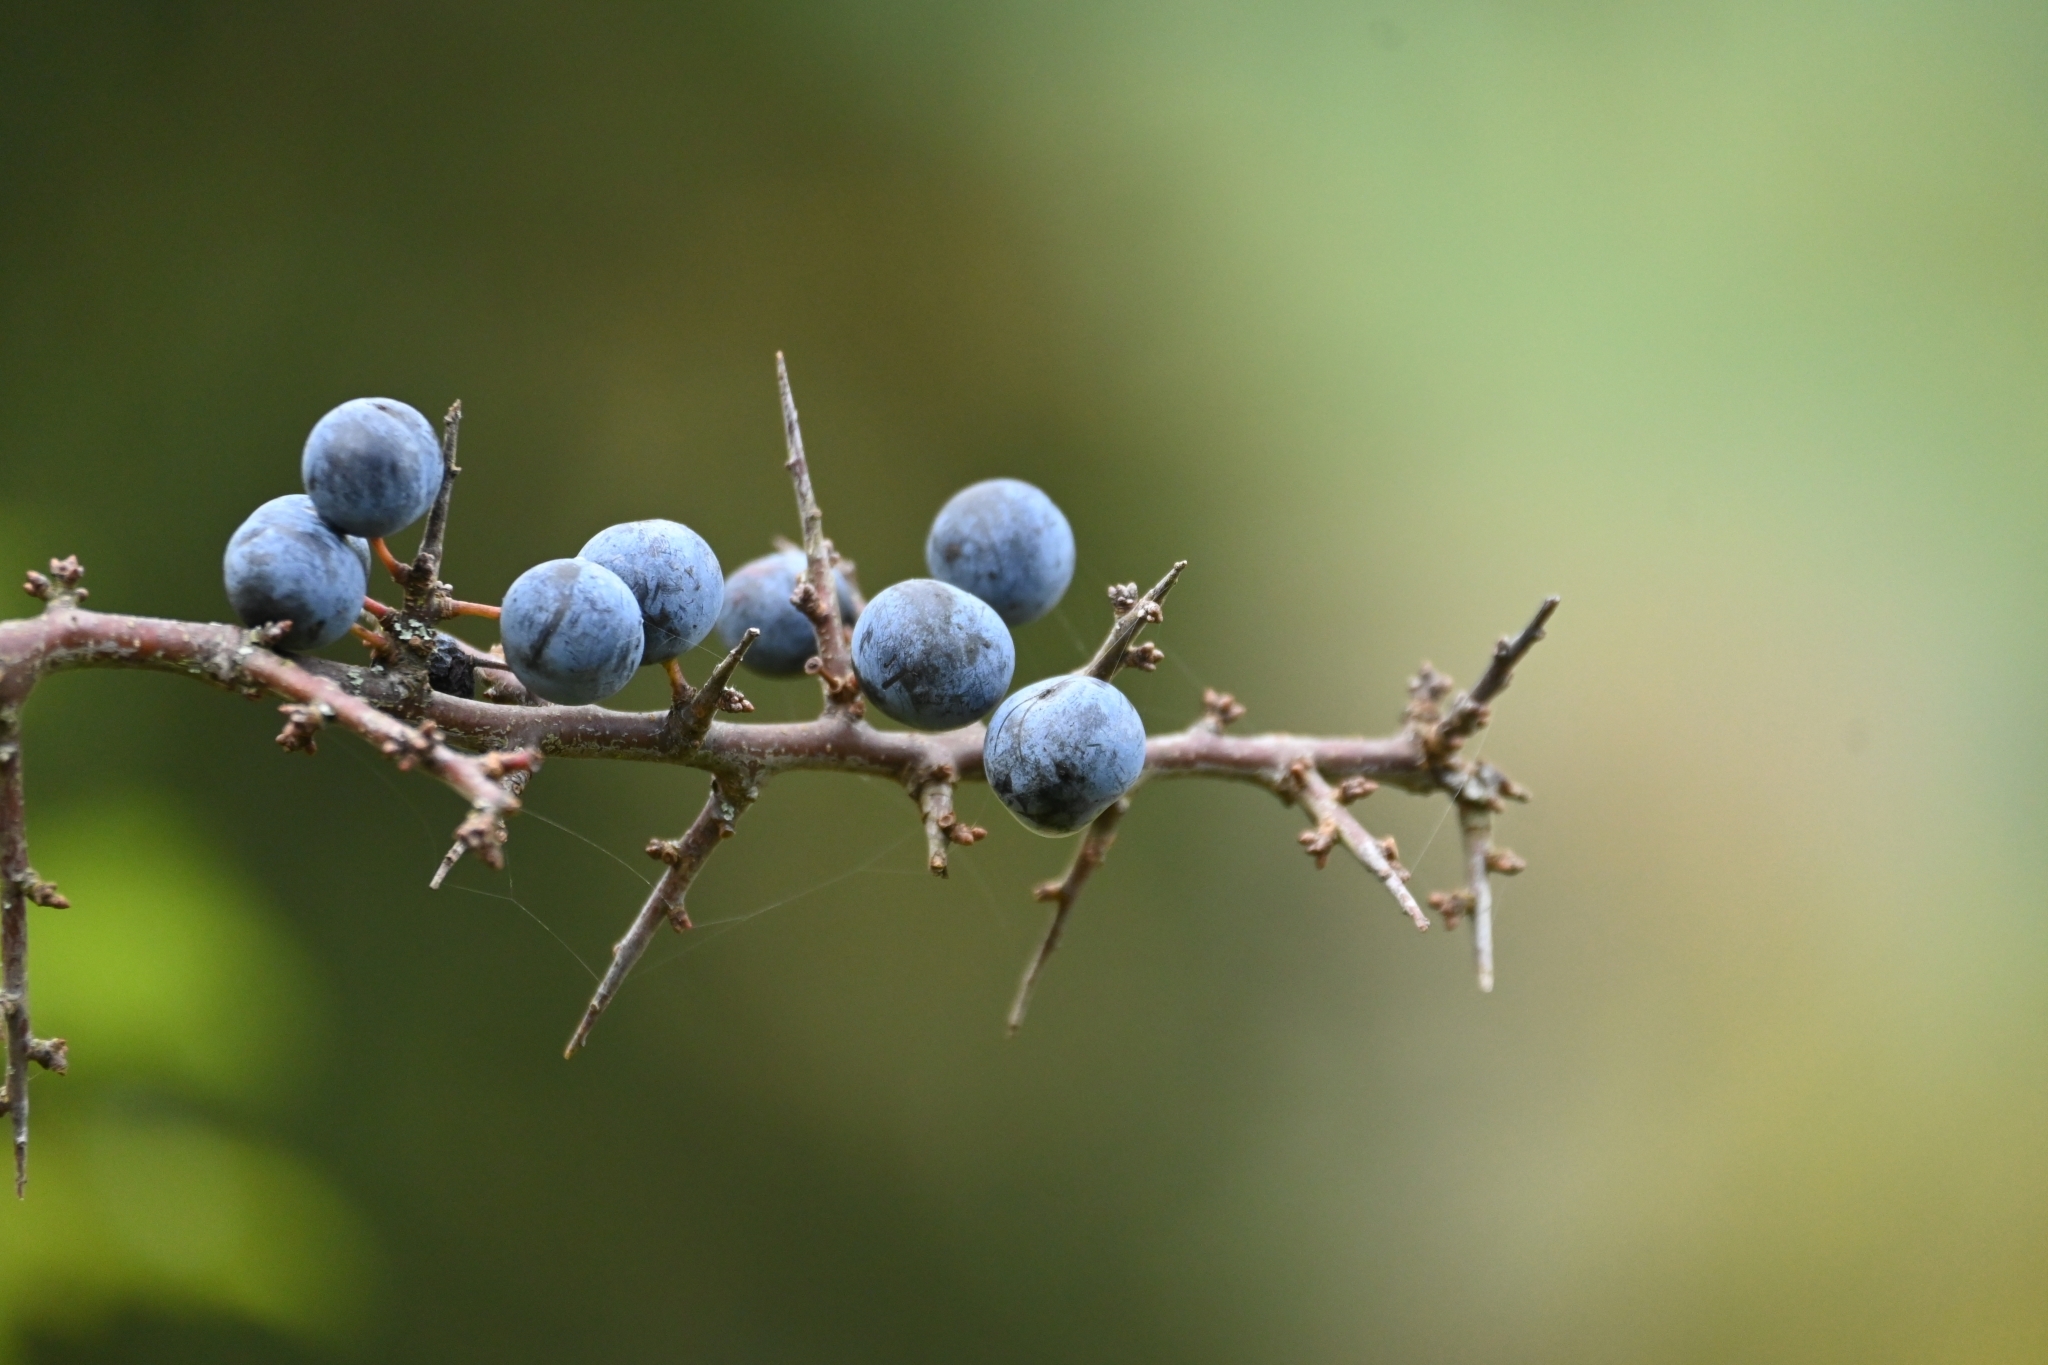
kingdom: Plantae
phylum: Tracheophyta
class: Magnoliopsida
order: Rosales
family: Rosaceae
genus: Prunus
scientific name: Prunus spinosa
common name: Blackthorn
